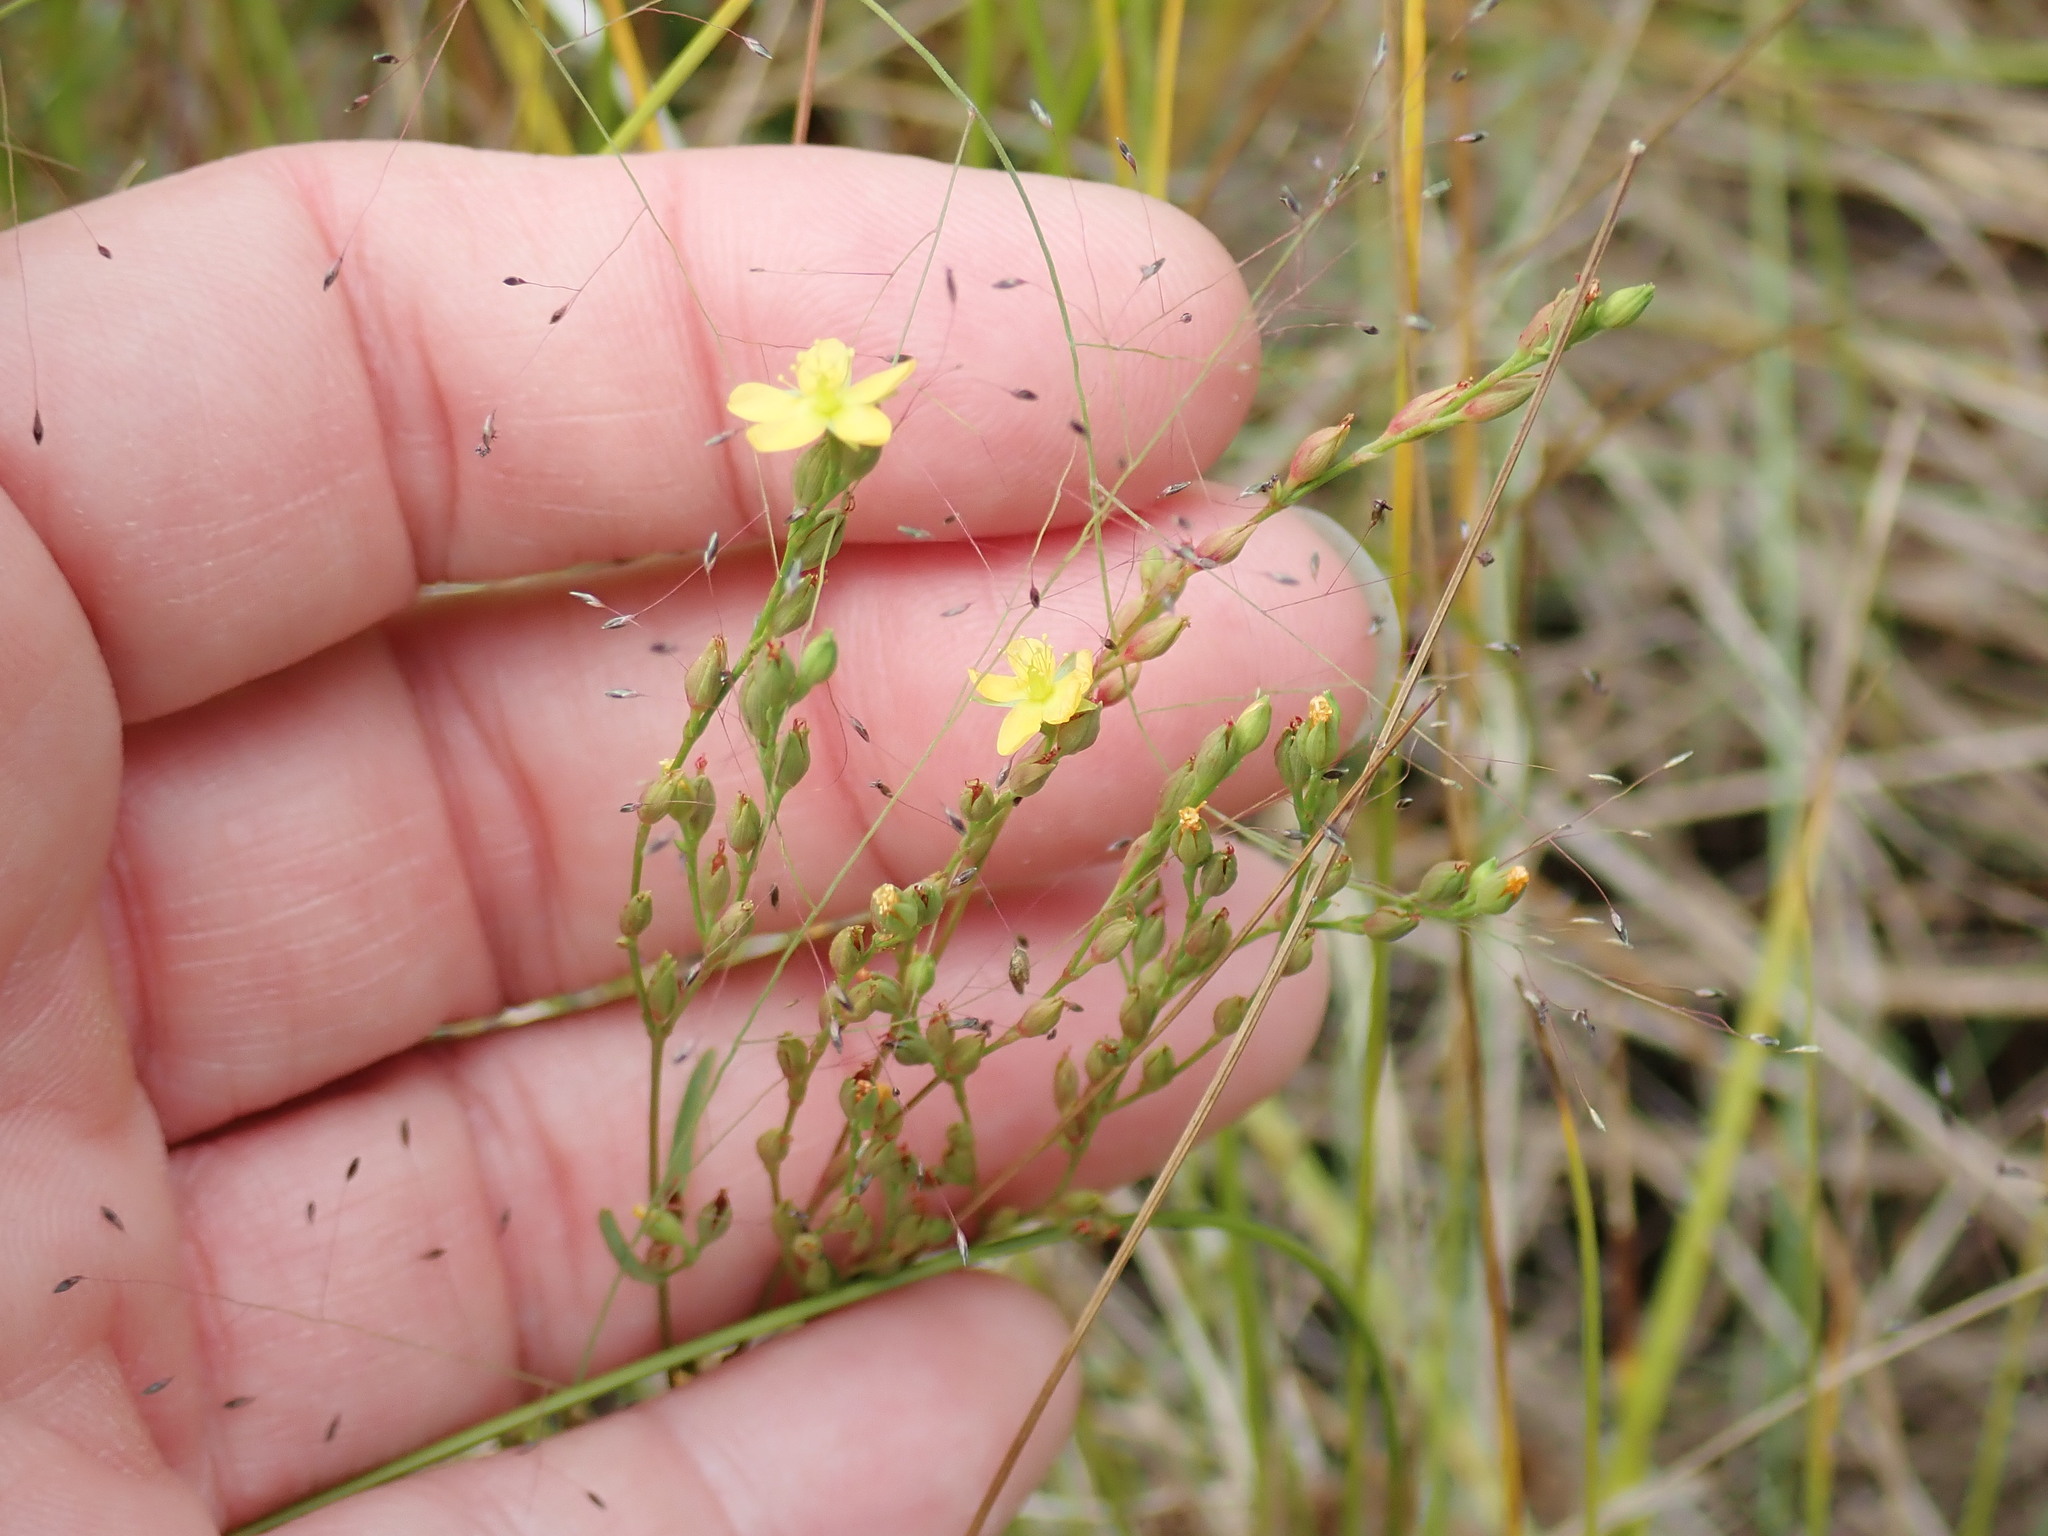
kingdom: Plantae
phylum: Tracheophyta
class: Magnoliopsida
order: Malpighiales
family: Hypericaceae
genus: Hypericum
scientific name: Hypericum gentianoides
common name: Gentian-leaved st. john's-wort
